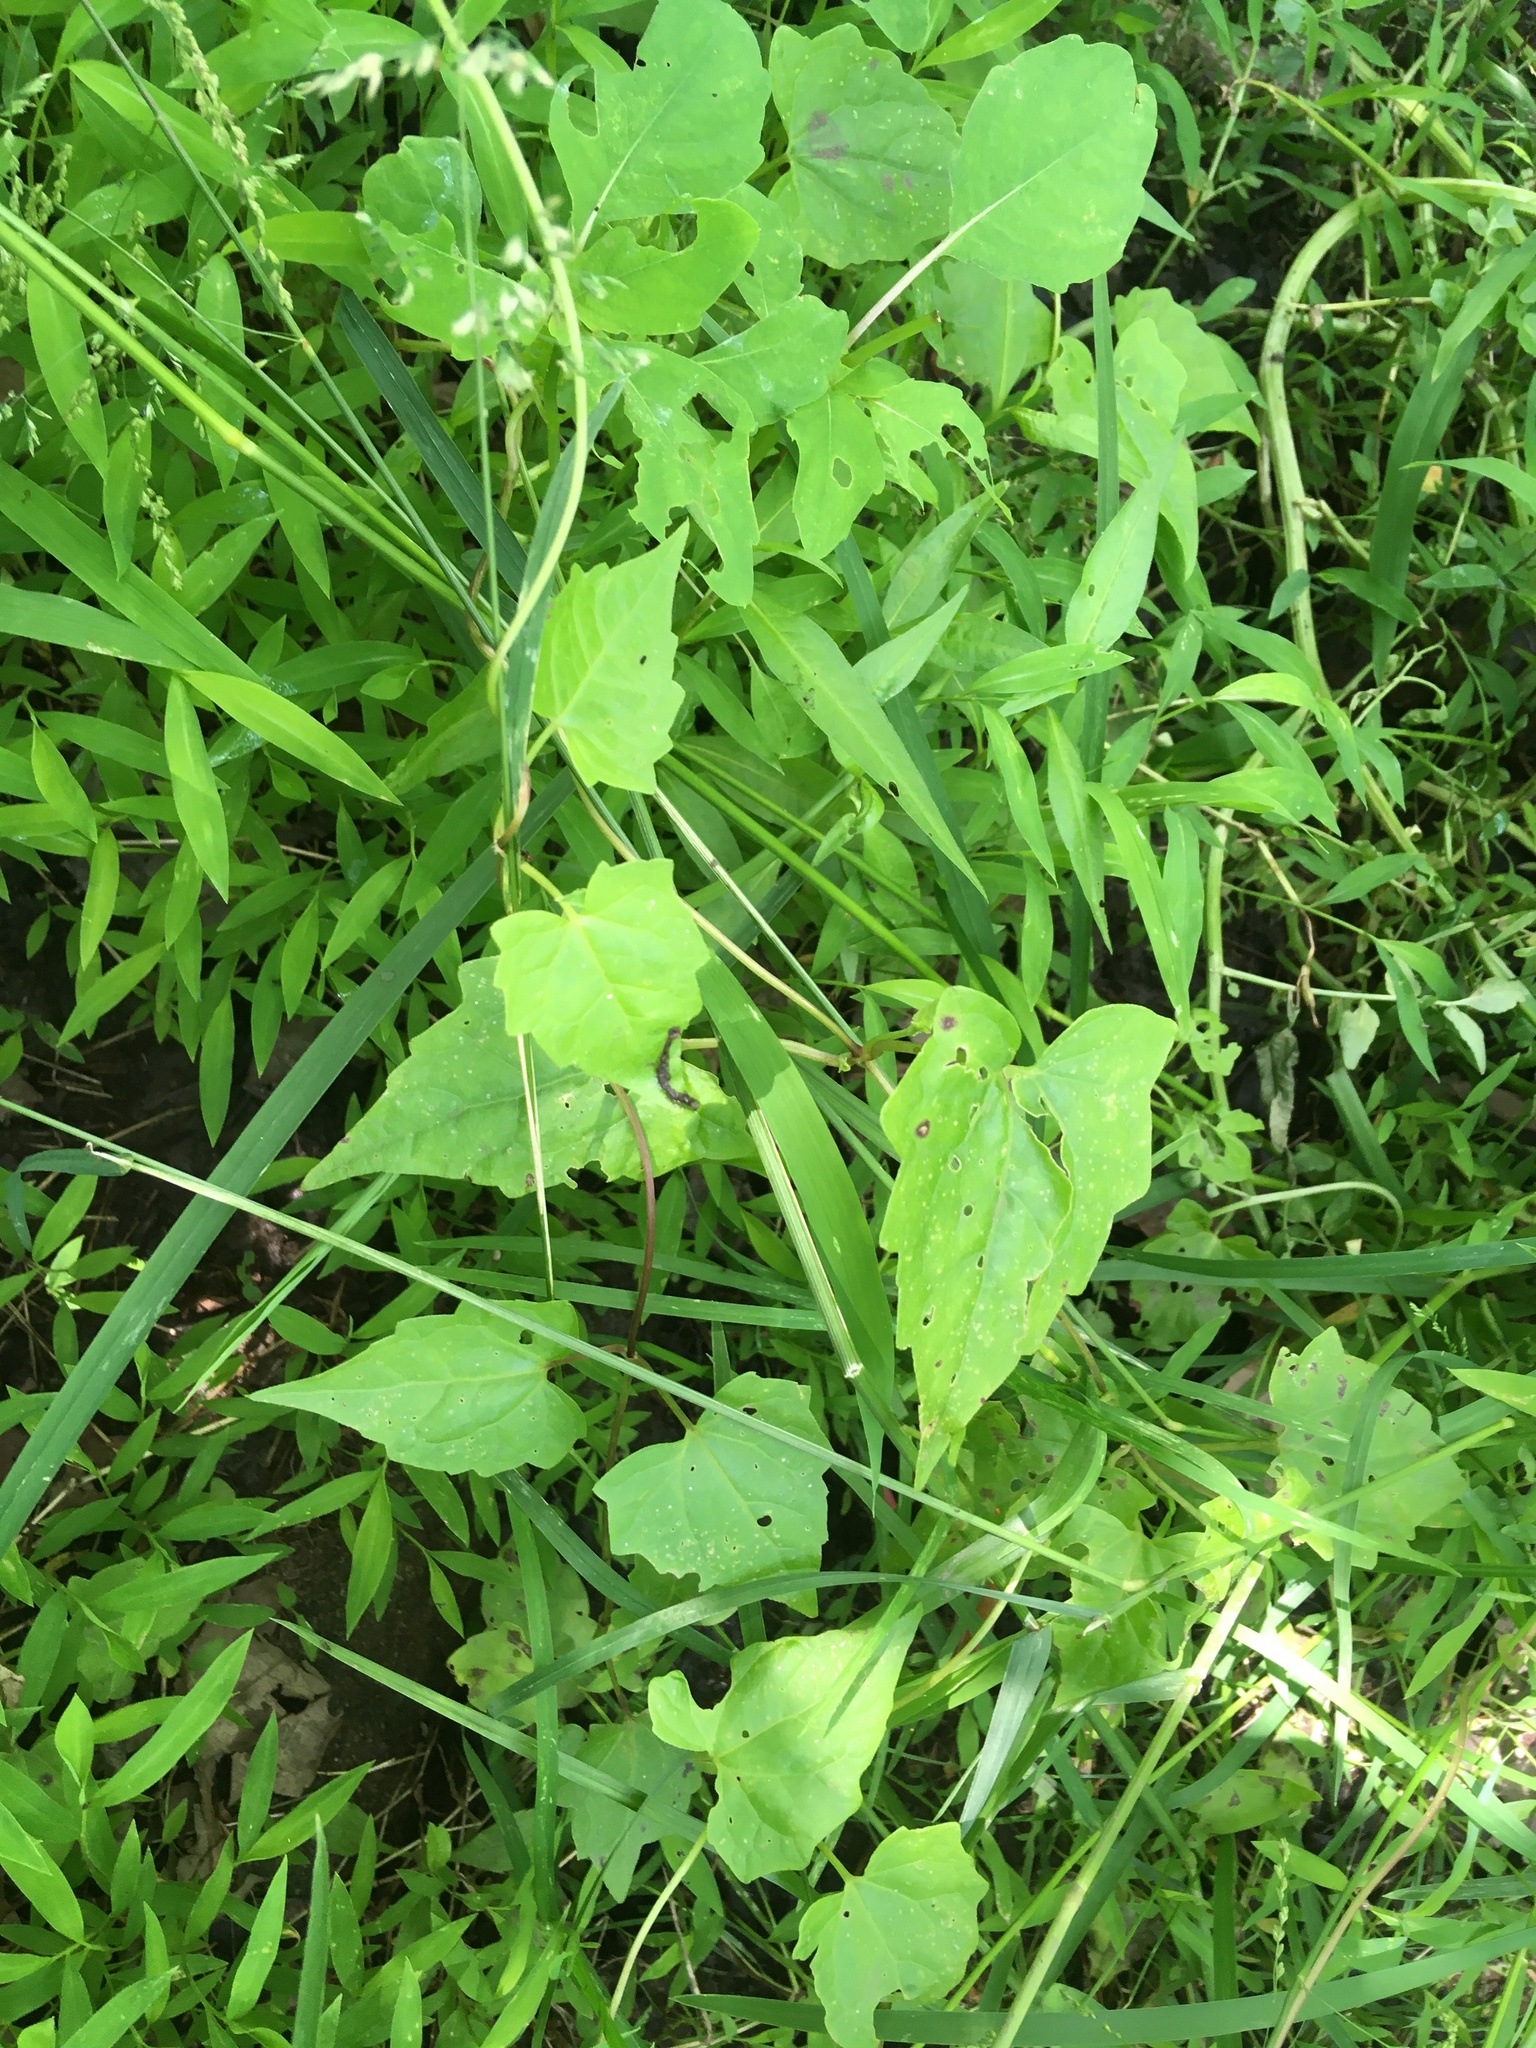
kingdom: Plantae
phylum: Tracheophyta
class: Magnoliopsida
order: Asterales
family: Asteraceae
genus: Mikania
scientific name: Mikania scandens
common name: Climbing hempvine
